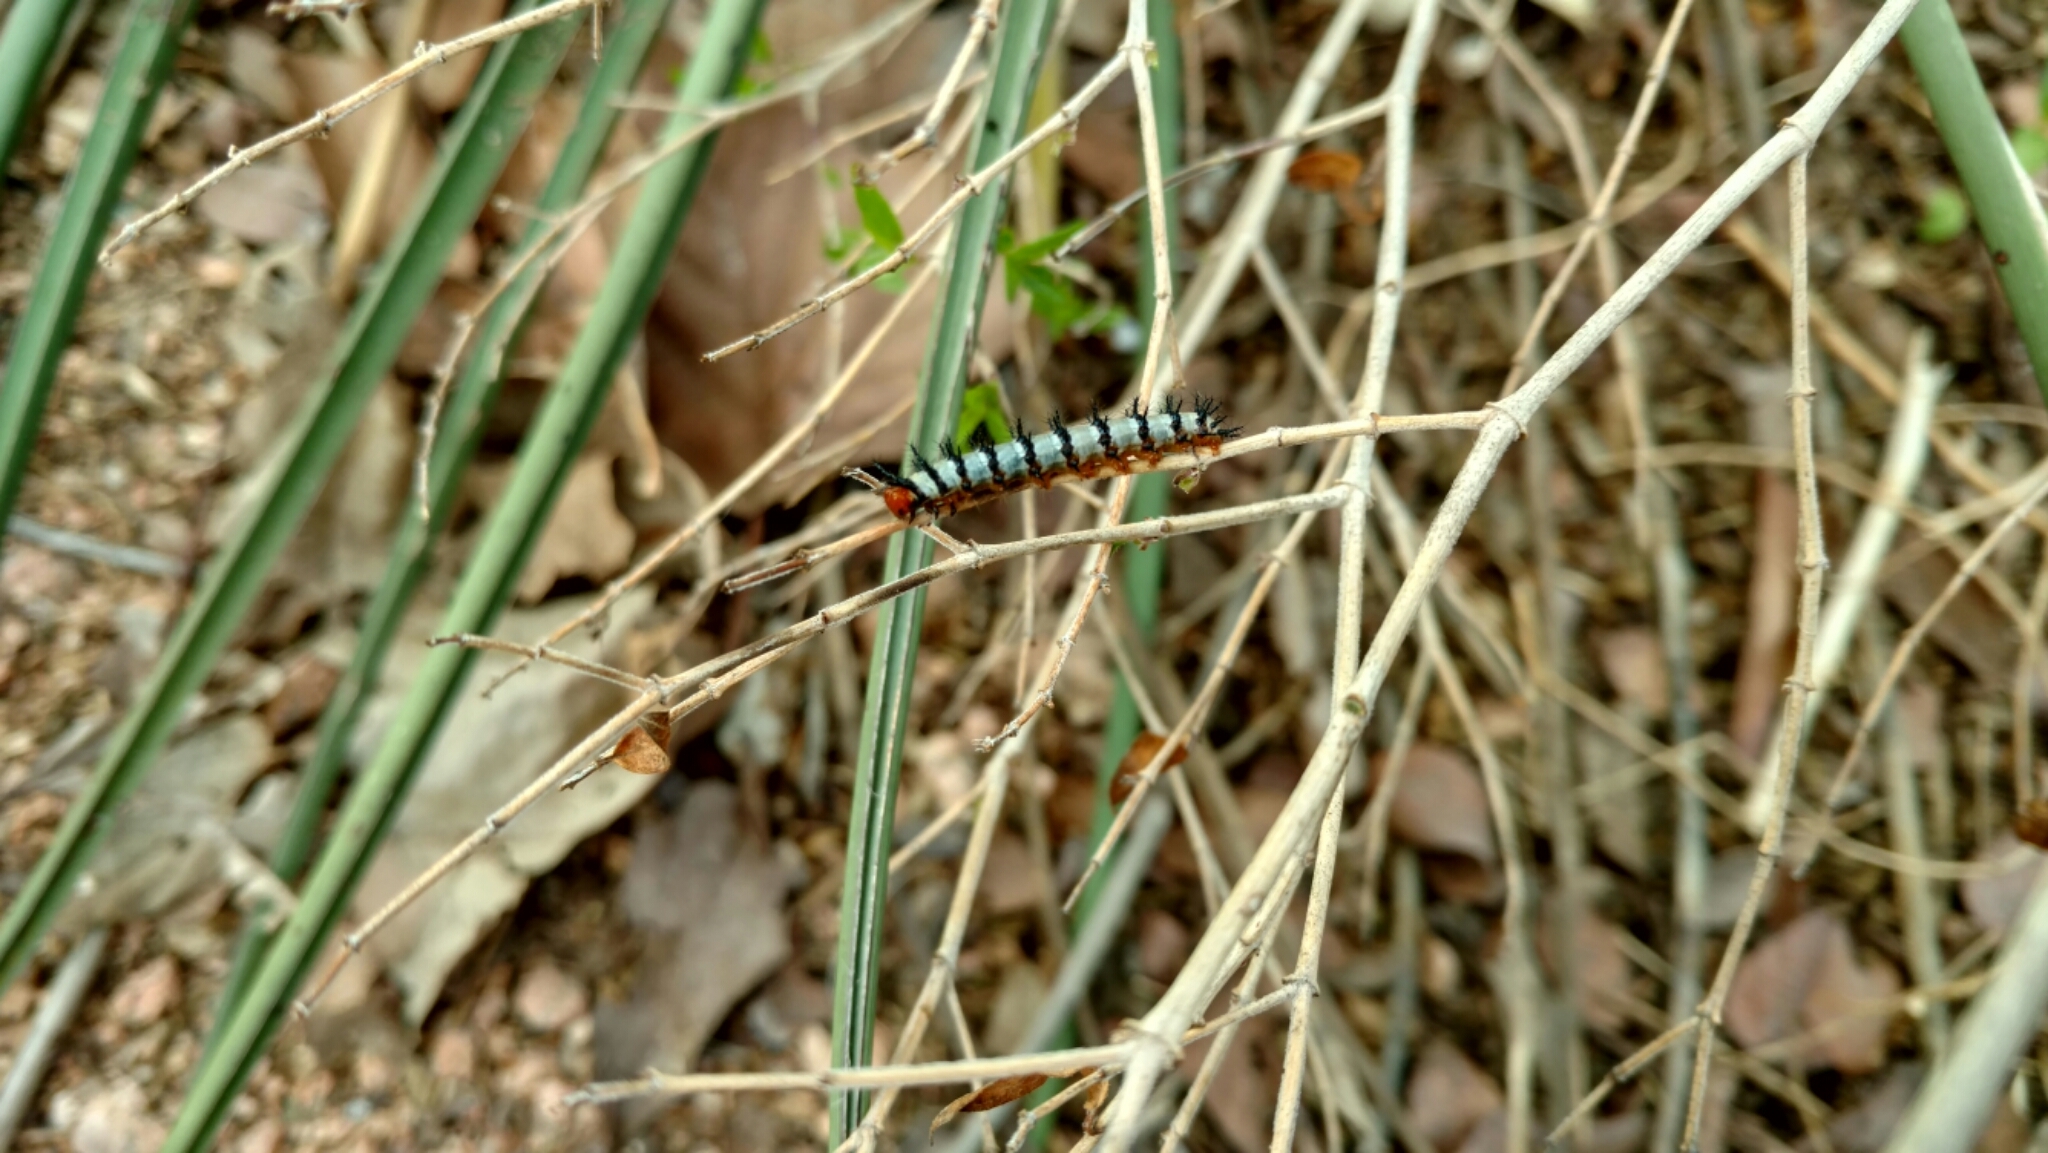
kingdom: Animalia
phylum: Arthropoda
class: Insecta
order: Lepidoptera
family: Nymphalidae
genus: Chlosyne
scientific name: Chlosyne janais
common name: Crimson patch
